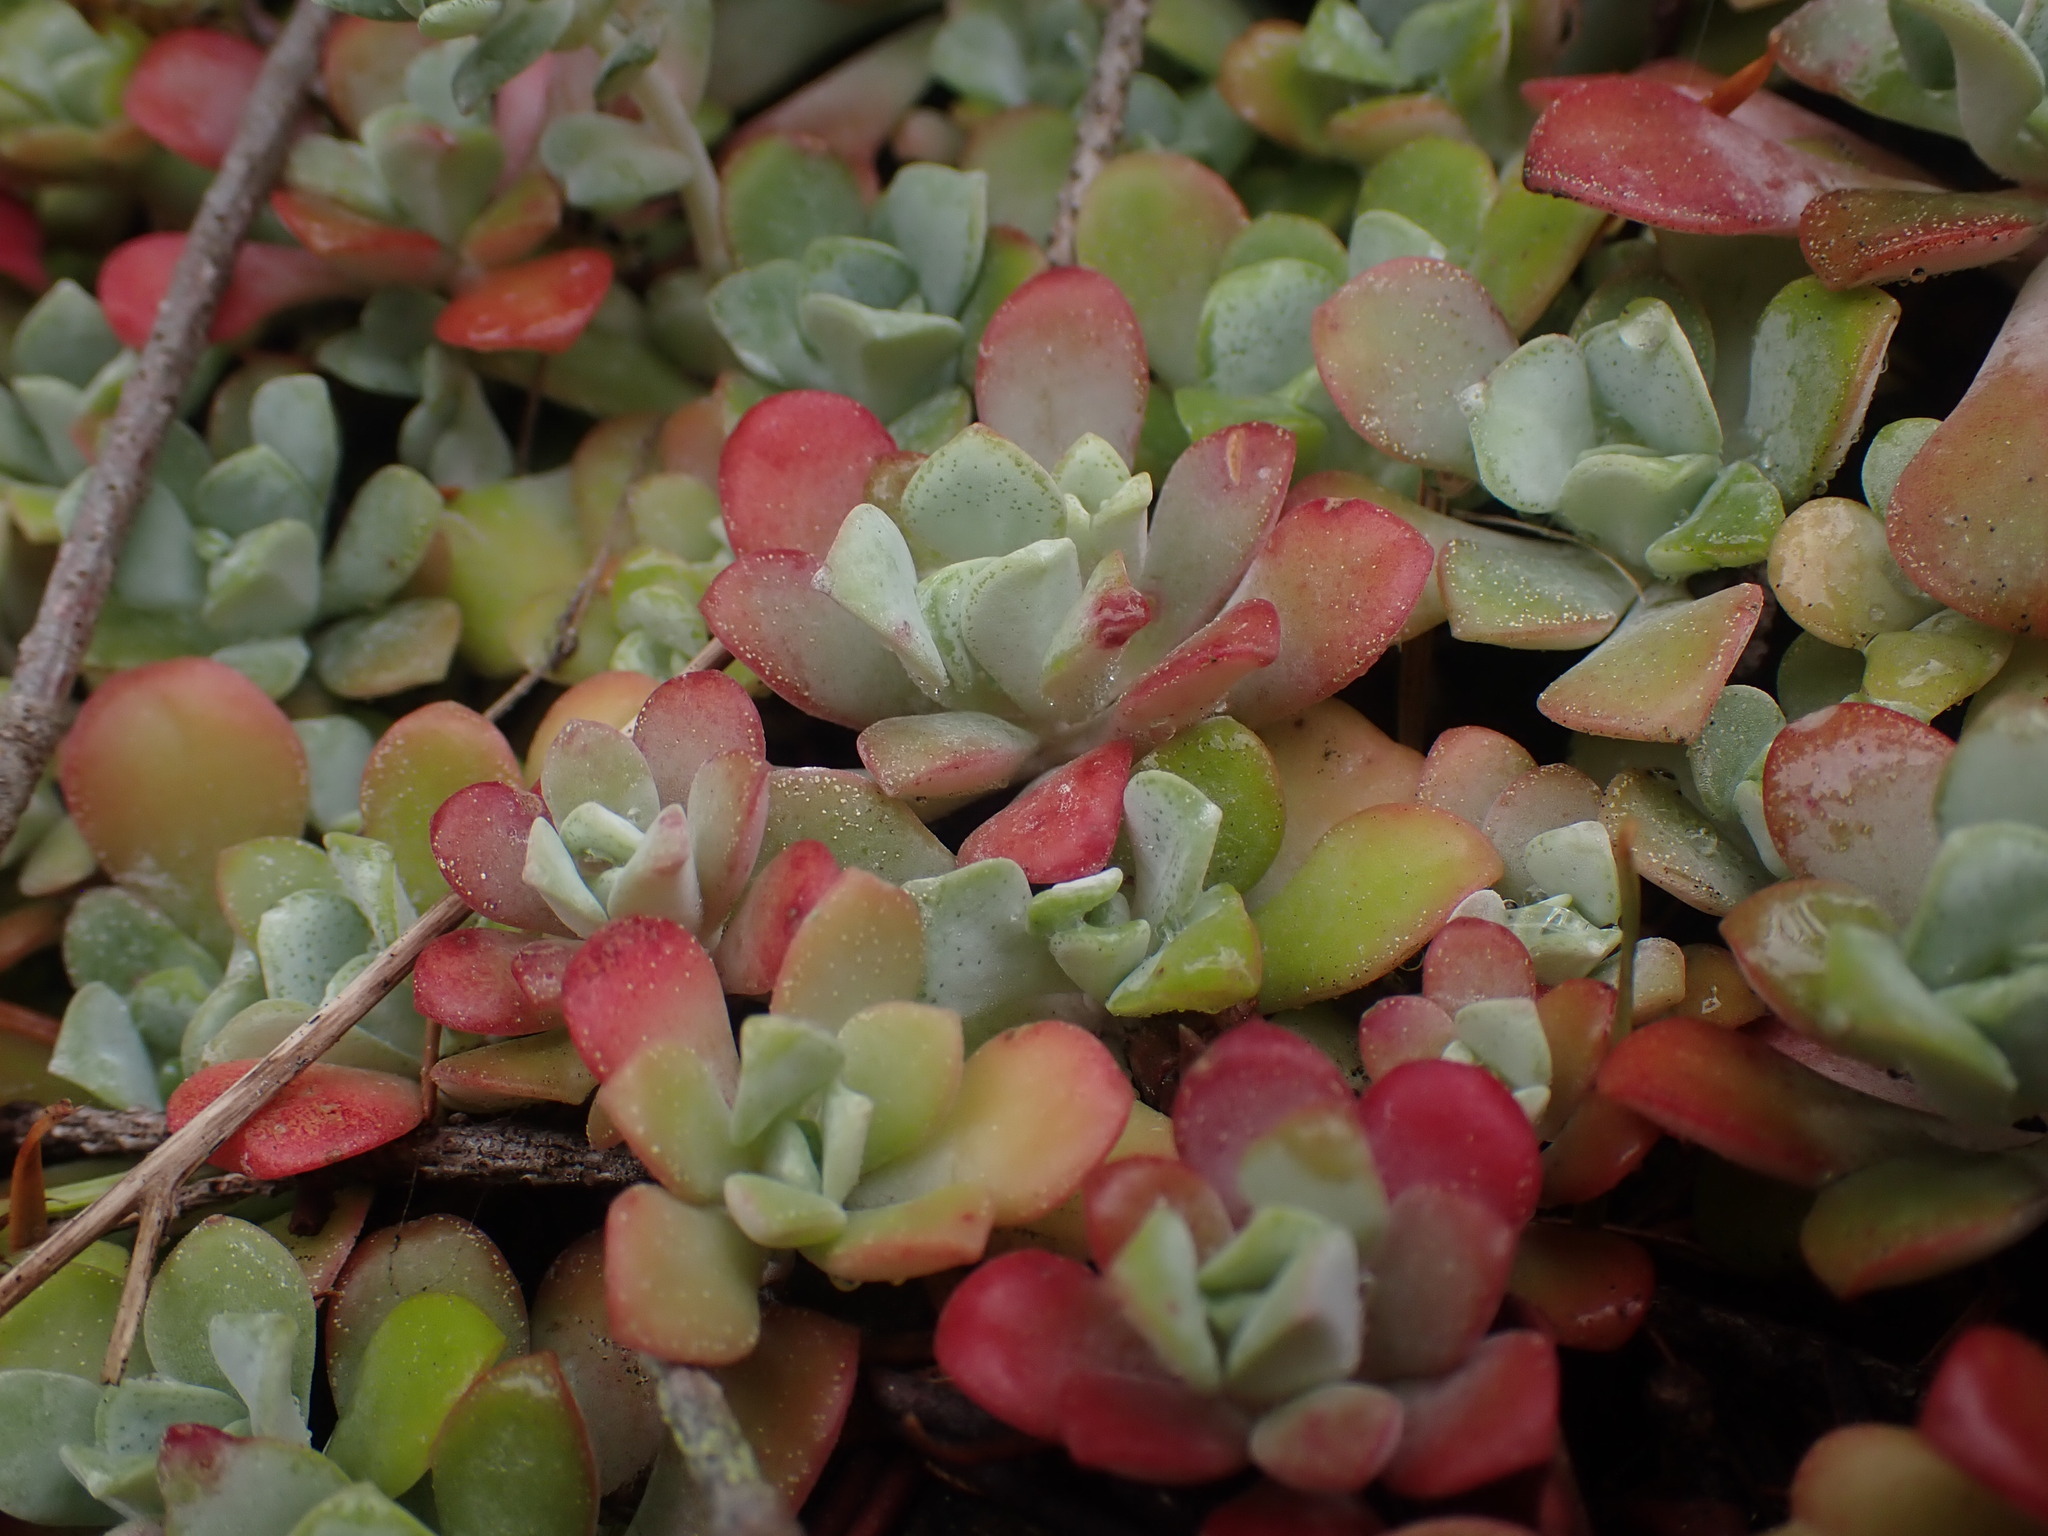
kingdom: Plantae
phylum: Tracheophyta
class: Magnoliopsida
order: Saxifragales
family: Crassulaceae
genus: Sedum
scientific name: Sedum spathulifolium
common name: Colorado stonecrop
